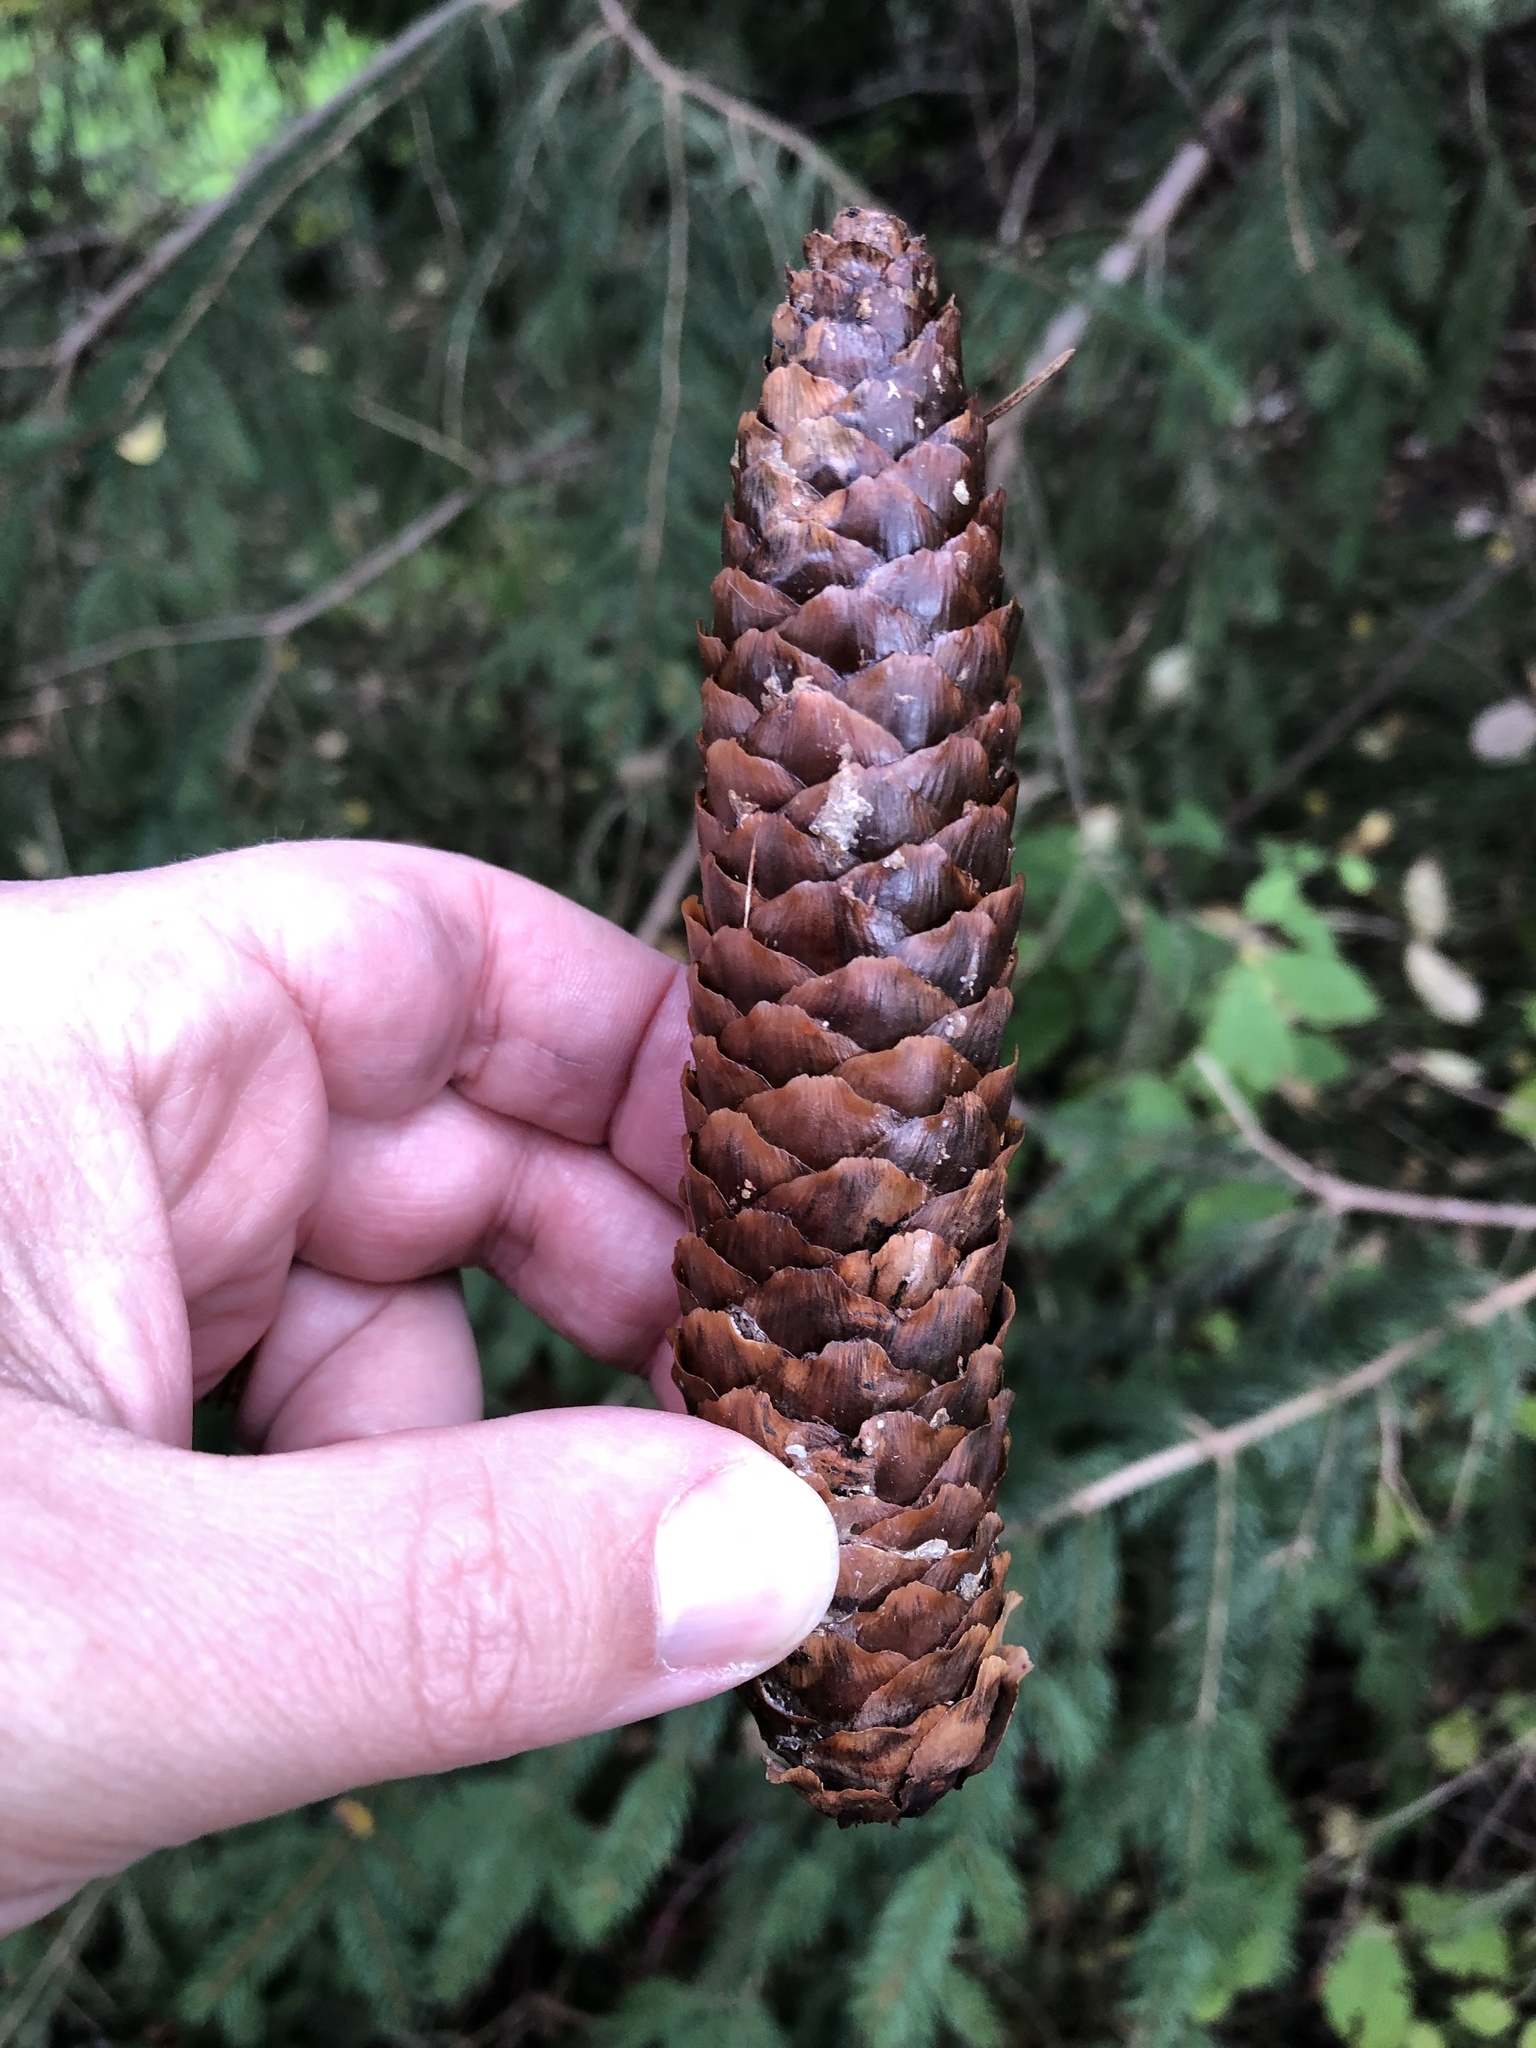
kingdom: Plantae
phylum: Tracheophyta
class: Pinopsida
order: Pinales
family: Pinaceae
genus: Picea
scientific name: Picea abies
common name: Norway spruce
